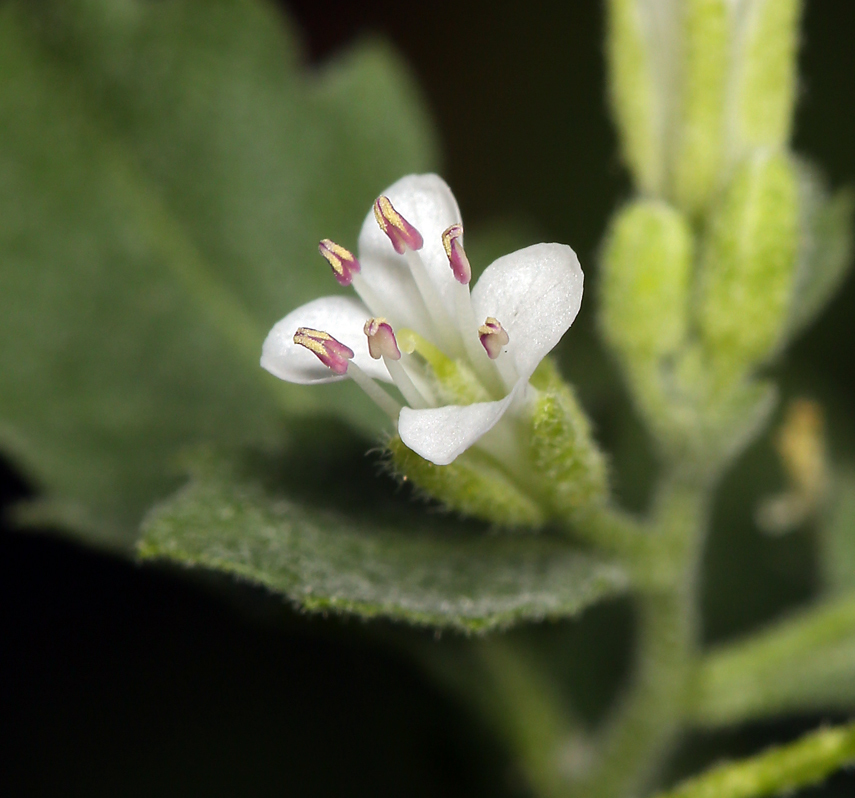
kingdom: Plantae
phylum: Tracheophyta
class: Magnoliopsida
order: Brassicales
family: Brassicaceae
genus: Halimolobos
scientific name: Halimolobos jaegeri
